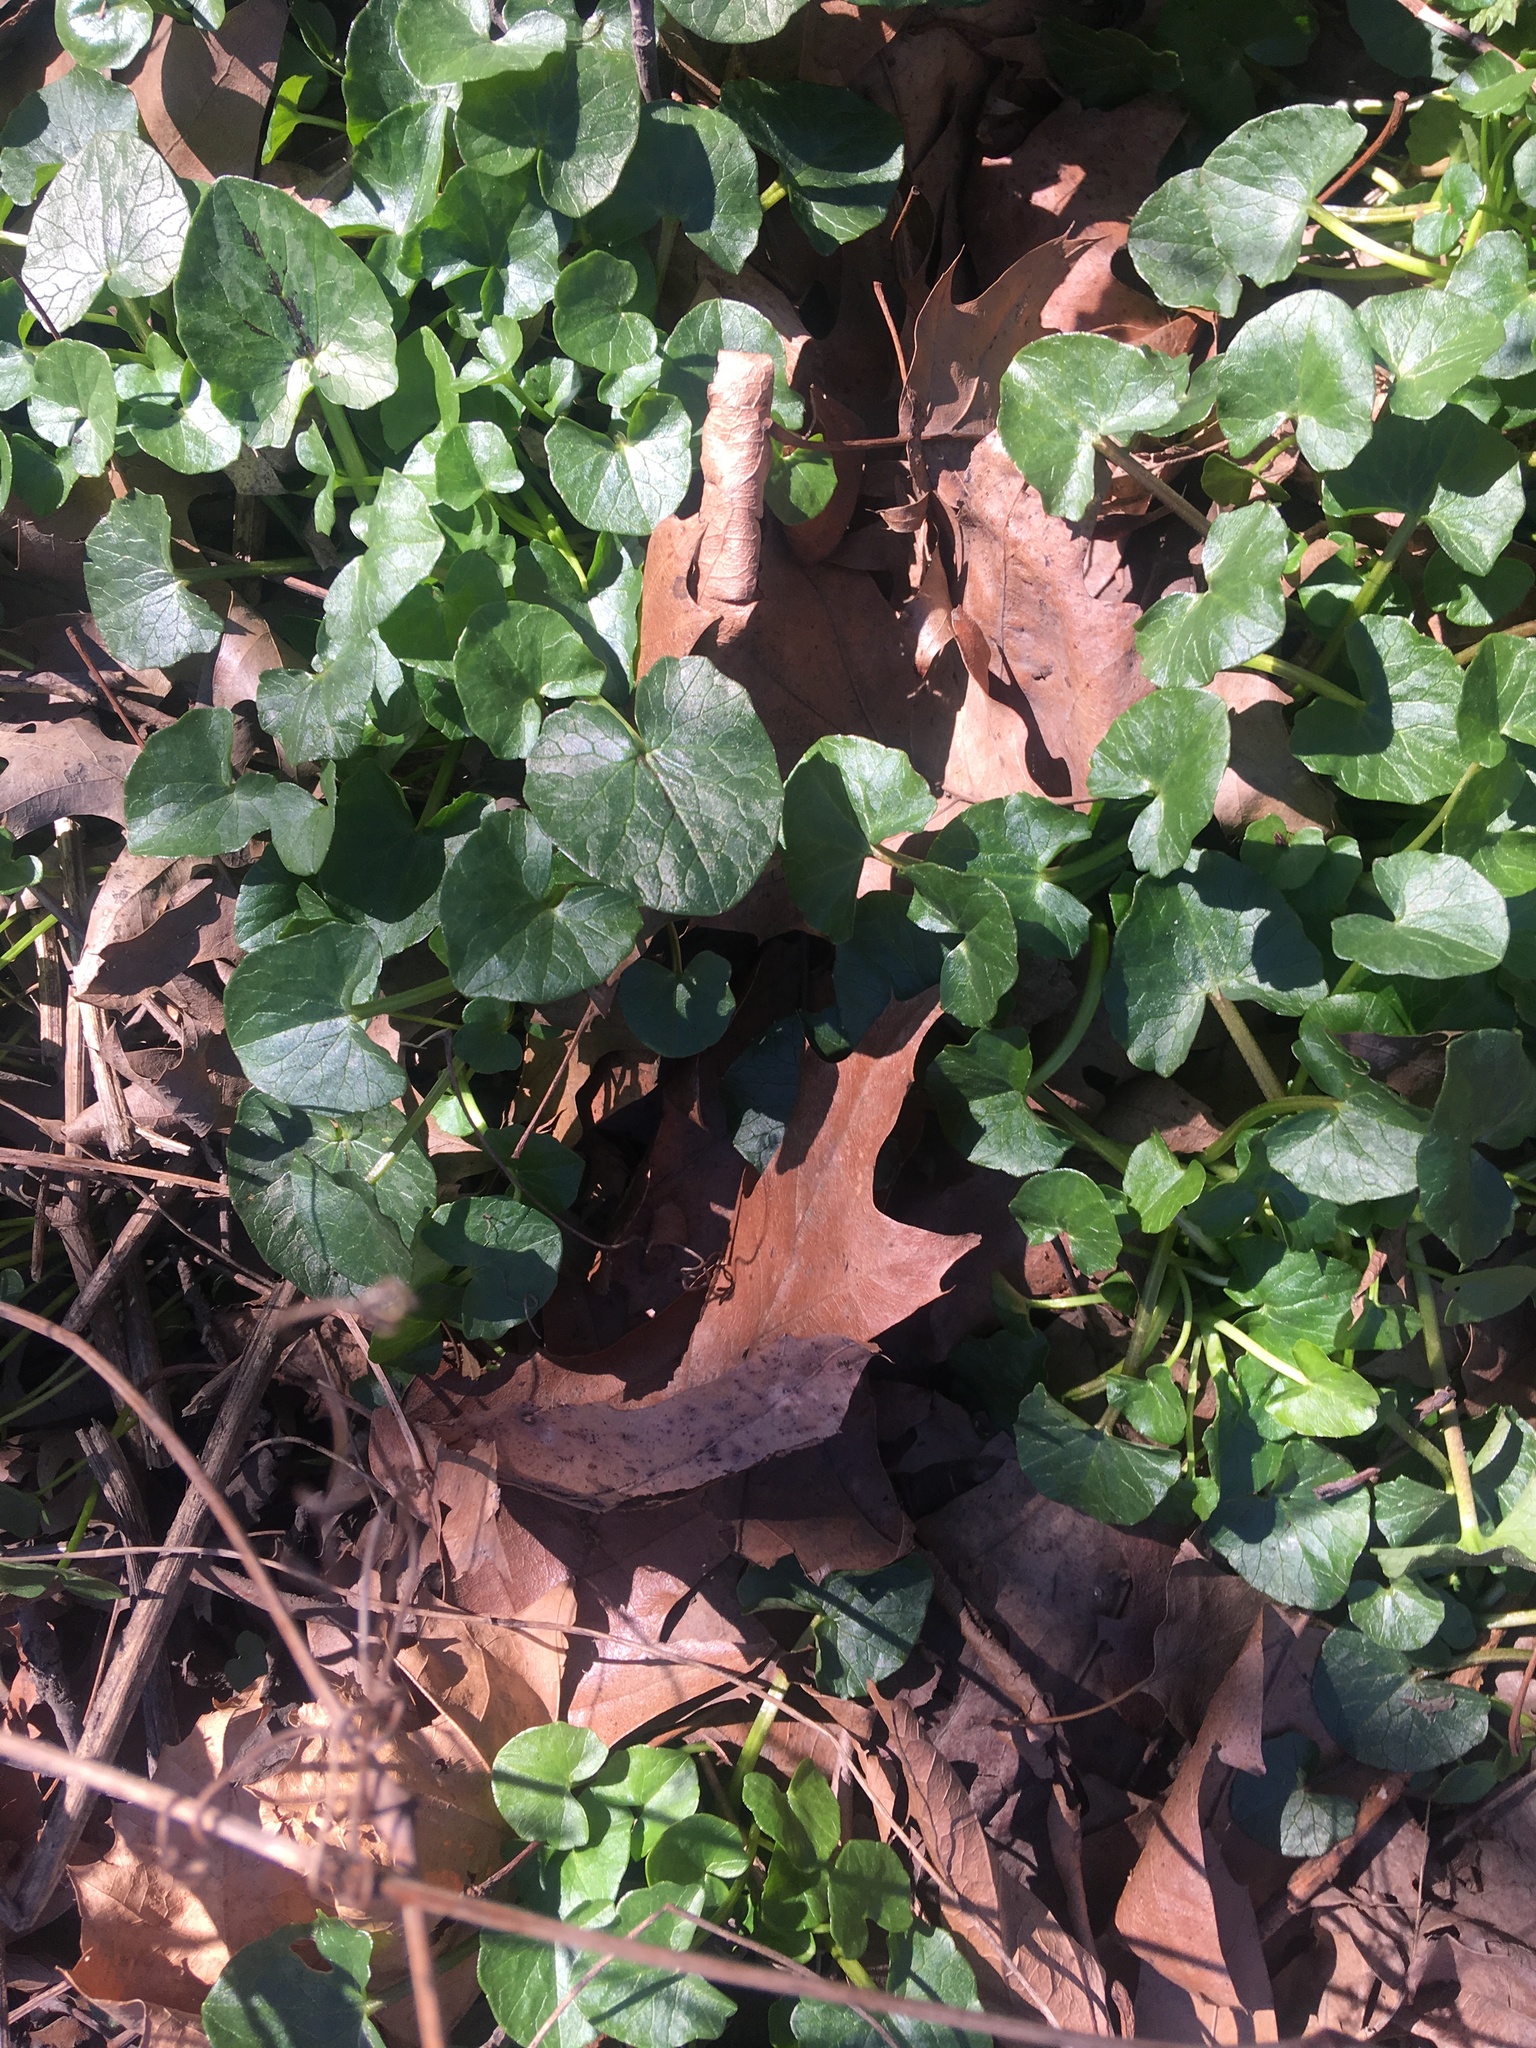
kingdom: Plantae
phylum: Tracheophyta
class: Magnoliopsida
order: Ranunculales
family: Ranunculaceae
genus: Ficaria
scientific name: Ficaria verna
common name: Lesser celandine
